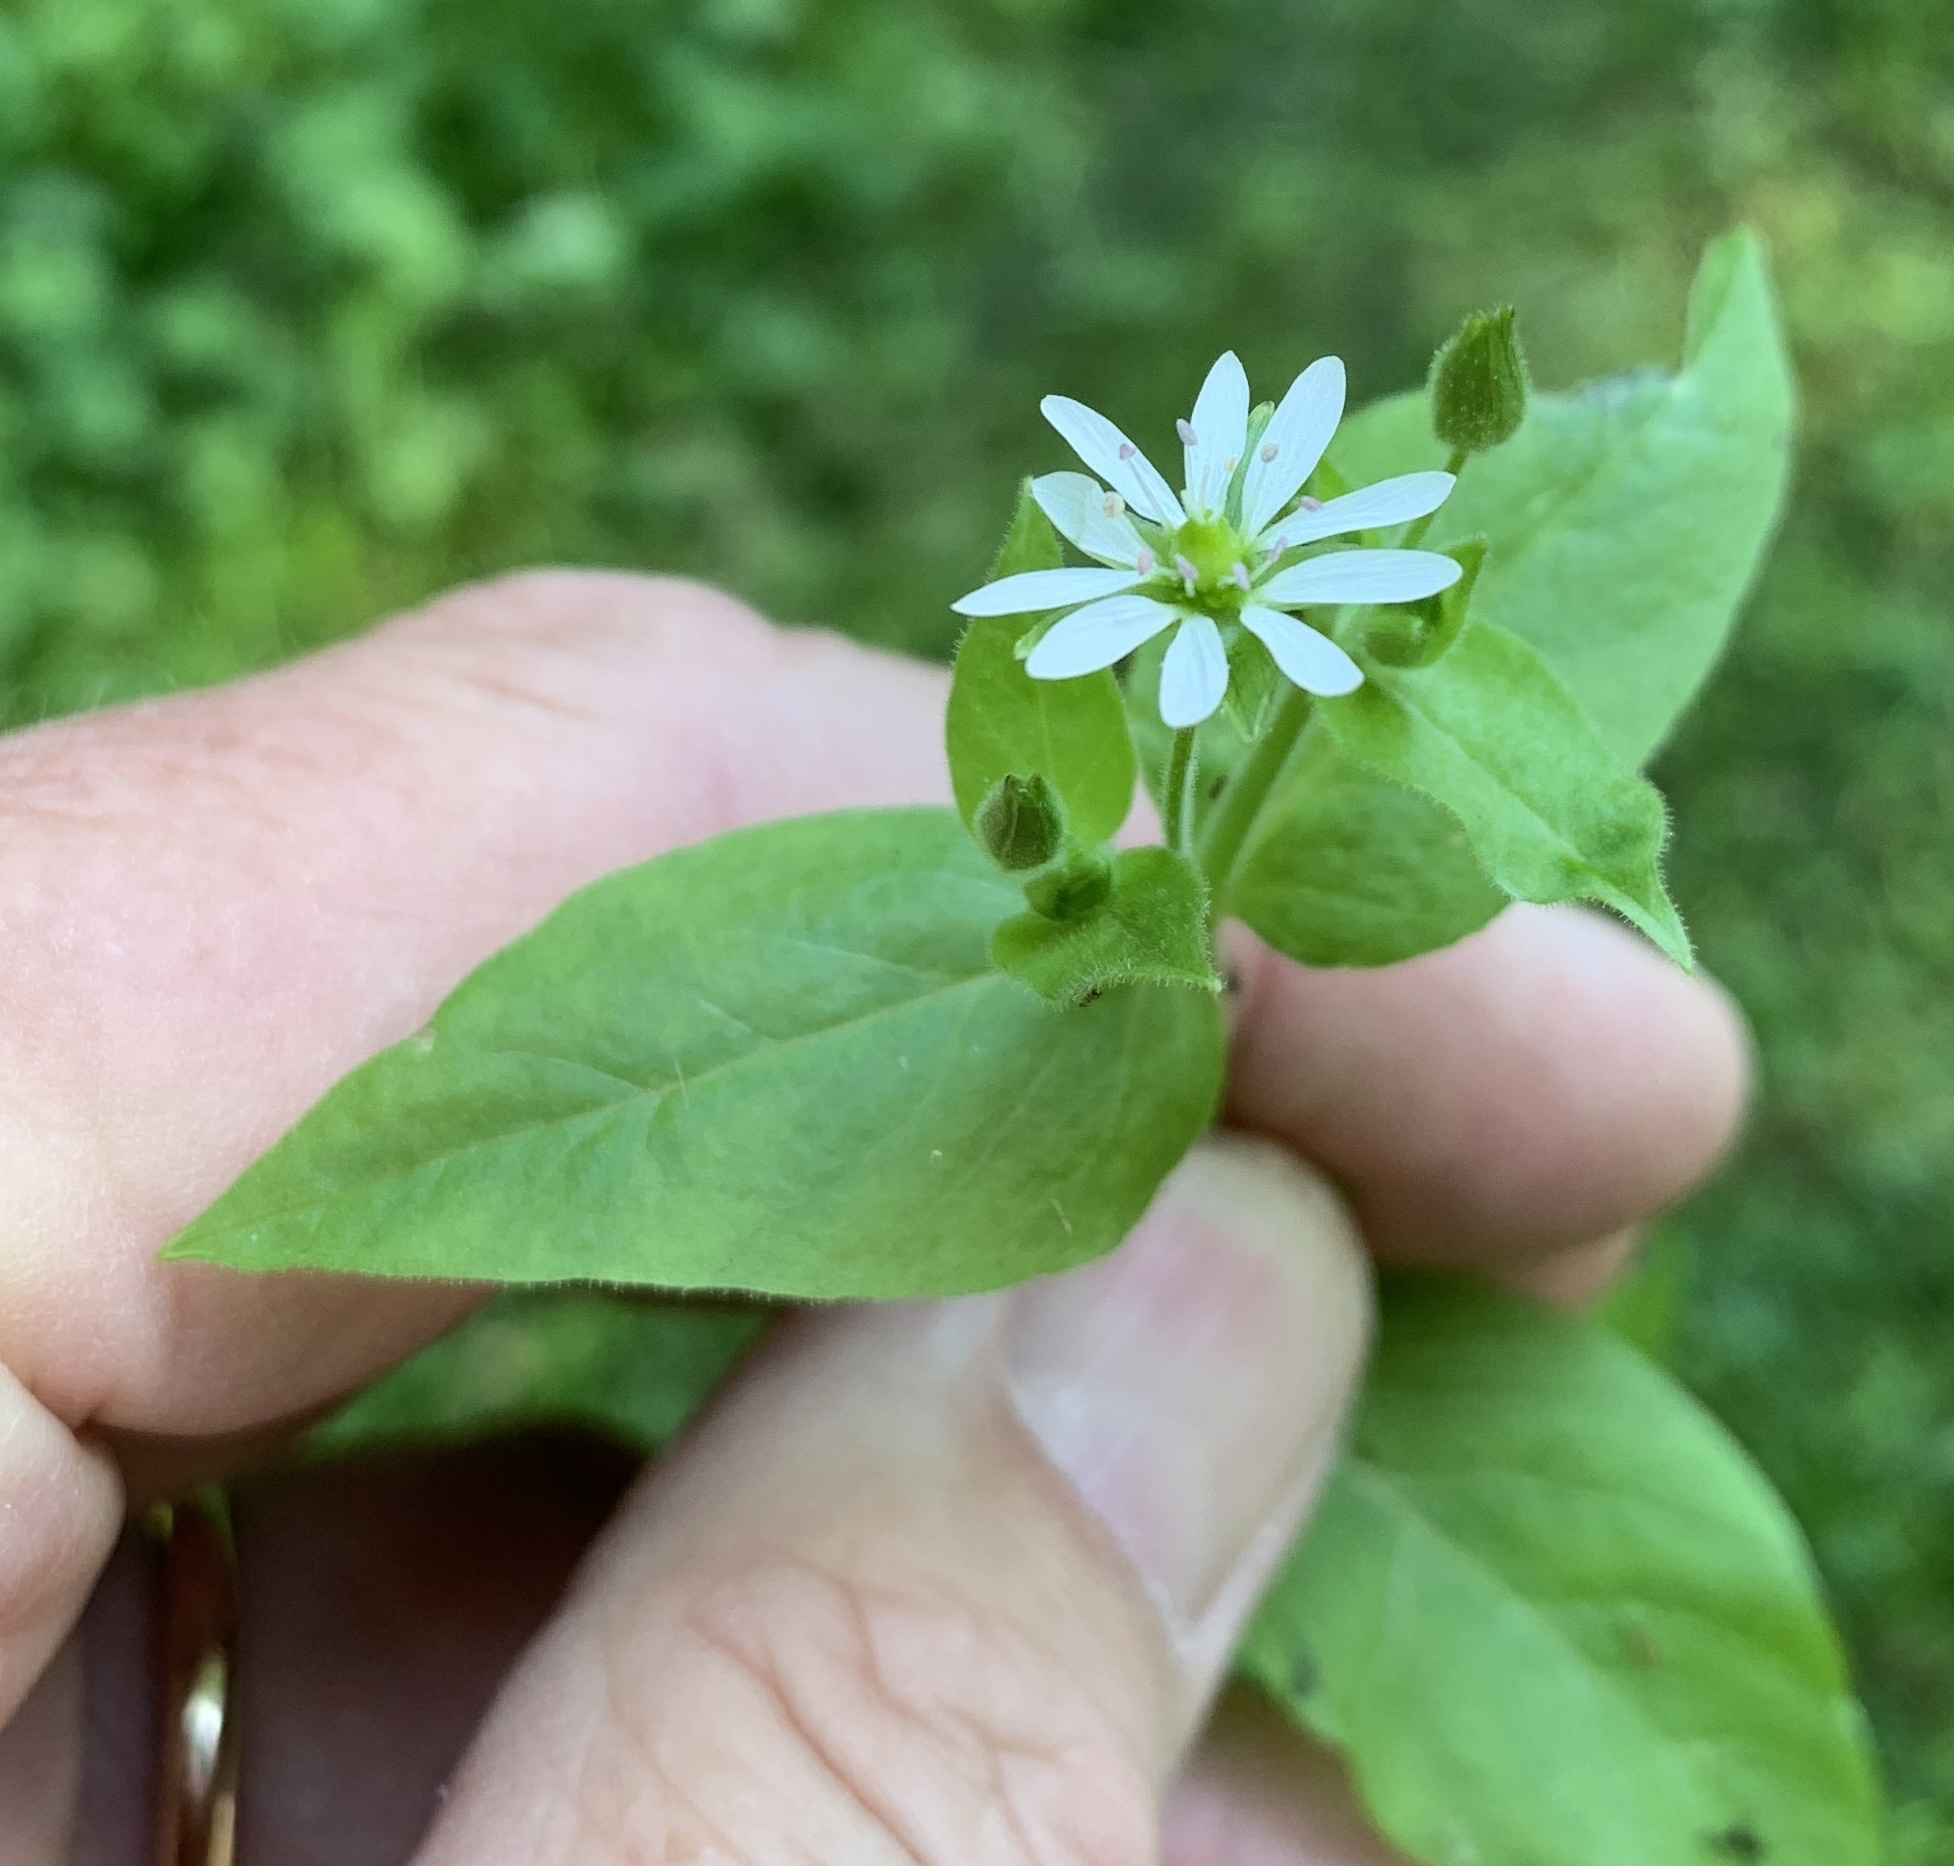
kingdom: Plantae
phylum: Tracheophyta
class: Magnoliopsida
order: Caryophyllales
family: Caryophyllaceae
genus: Stellaria
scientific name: Stellaria aquatica
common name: Water chickweed
